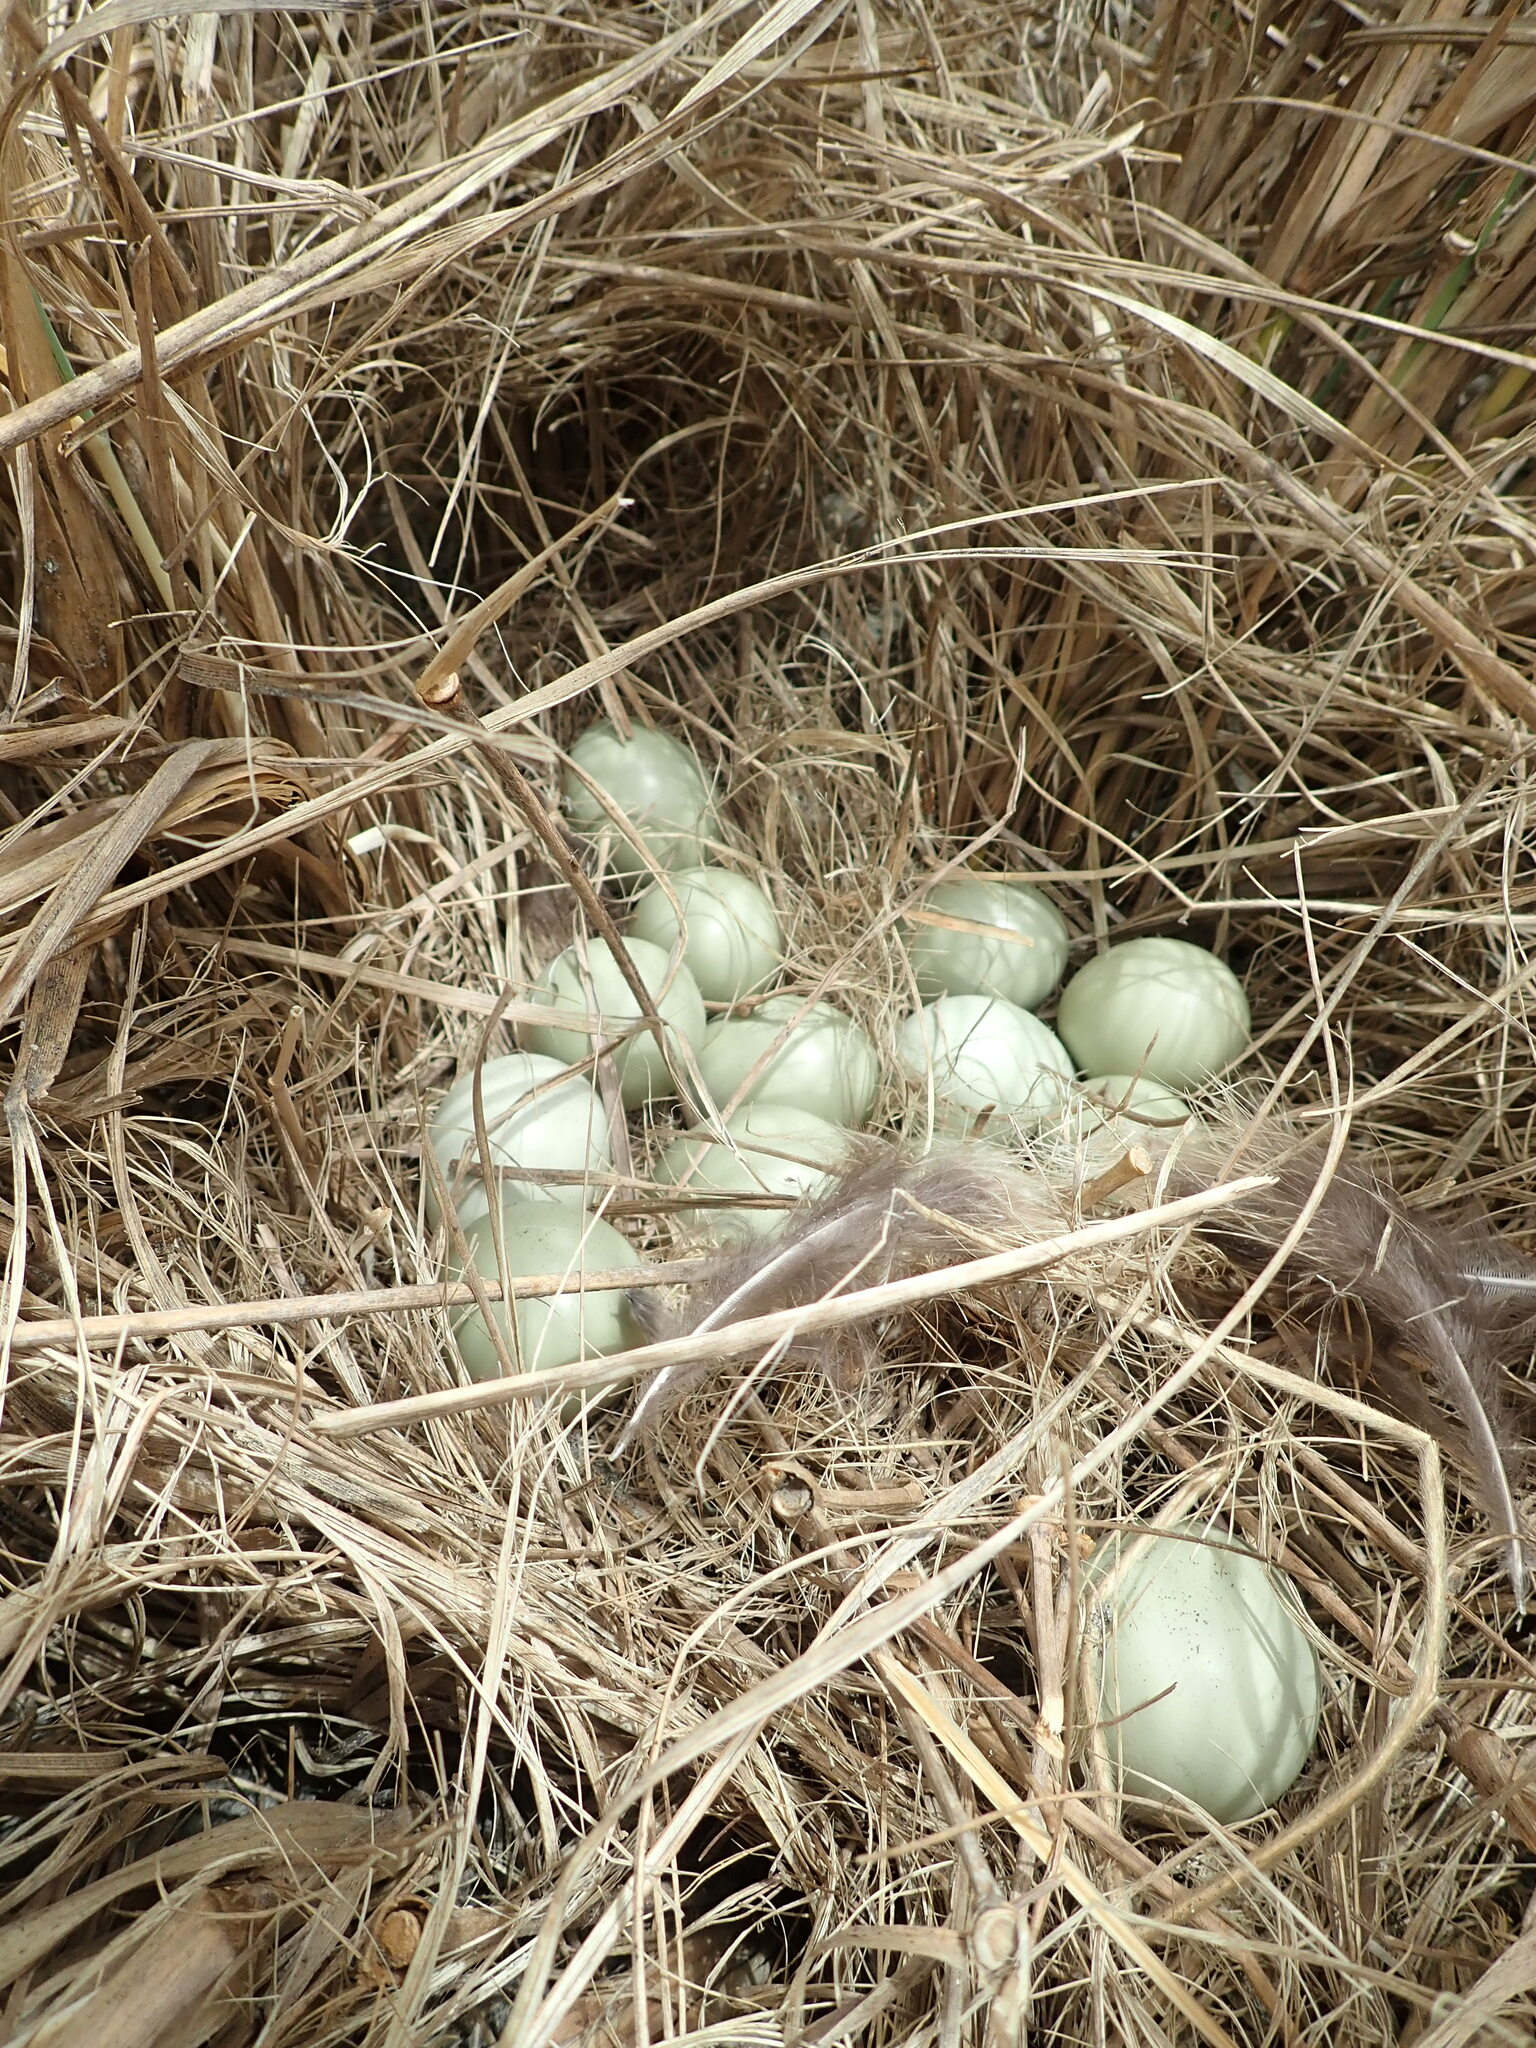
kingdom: Animalia
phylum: Chordata
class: Aves
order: Galliformes
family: Phasianidae
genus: Phasianus
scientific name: Phasianus colchicus
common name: Common pheasant
